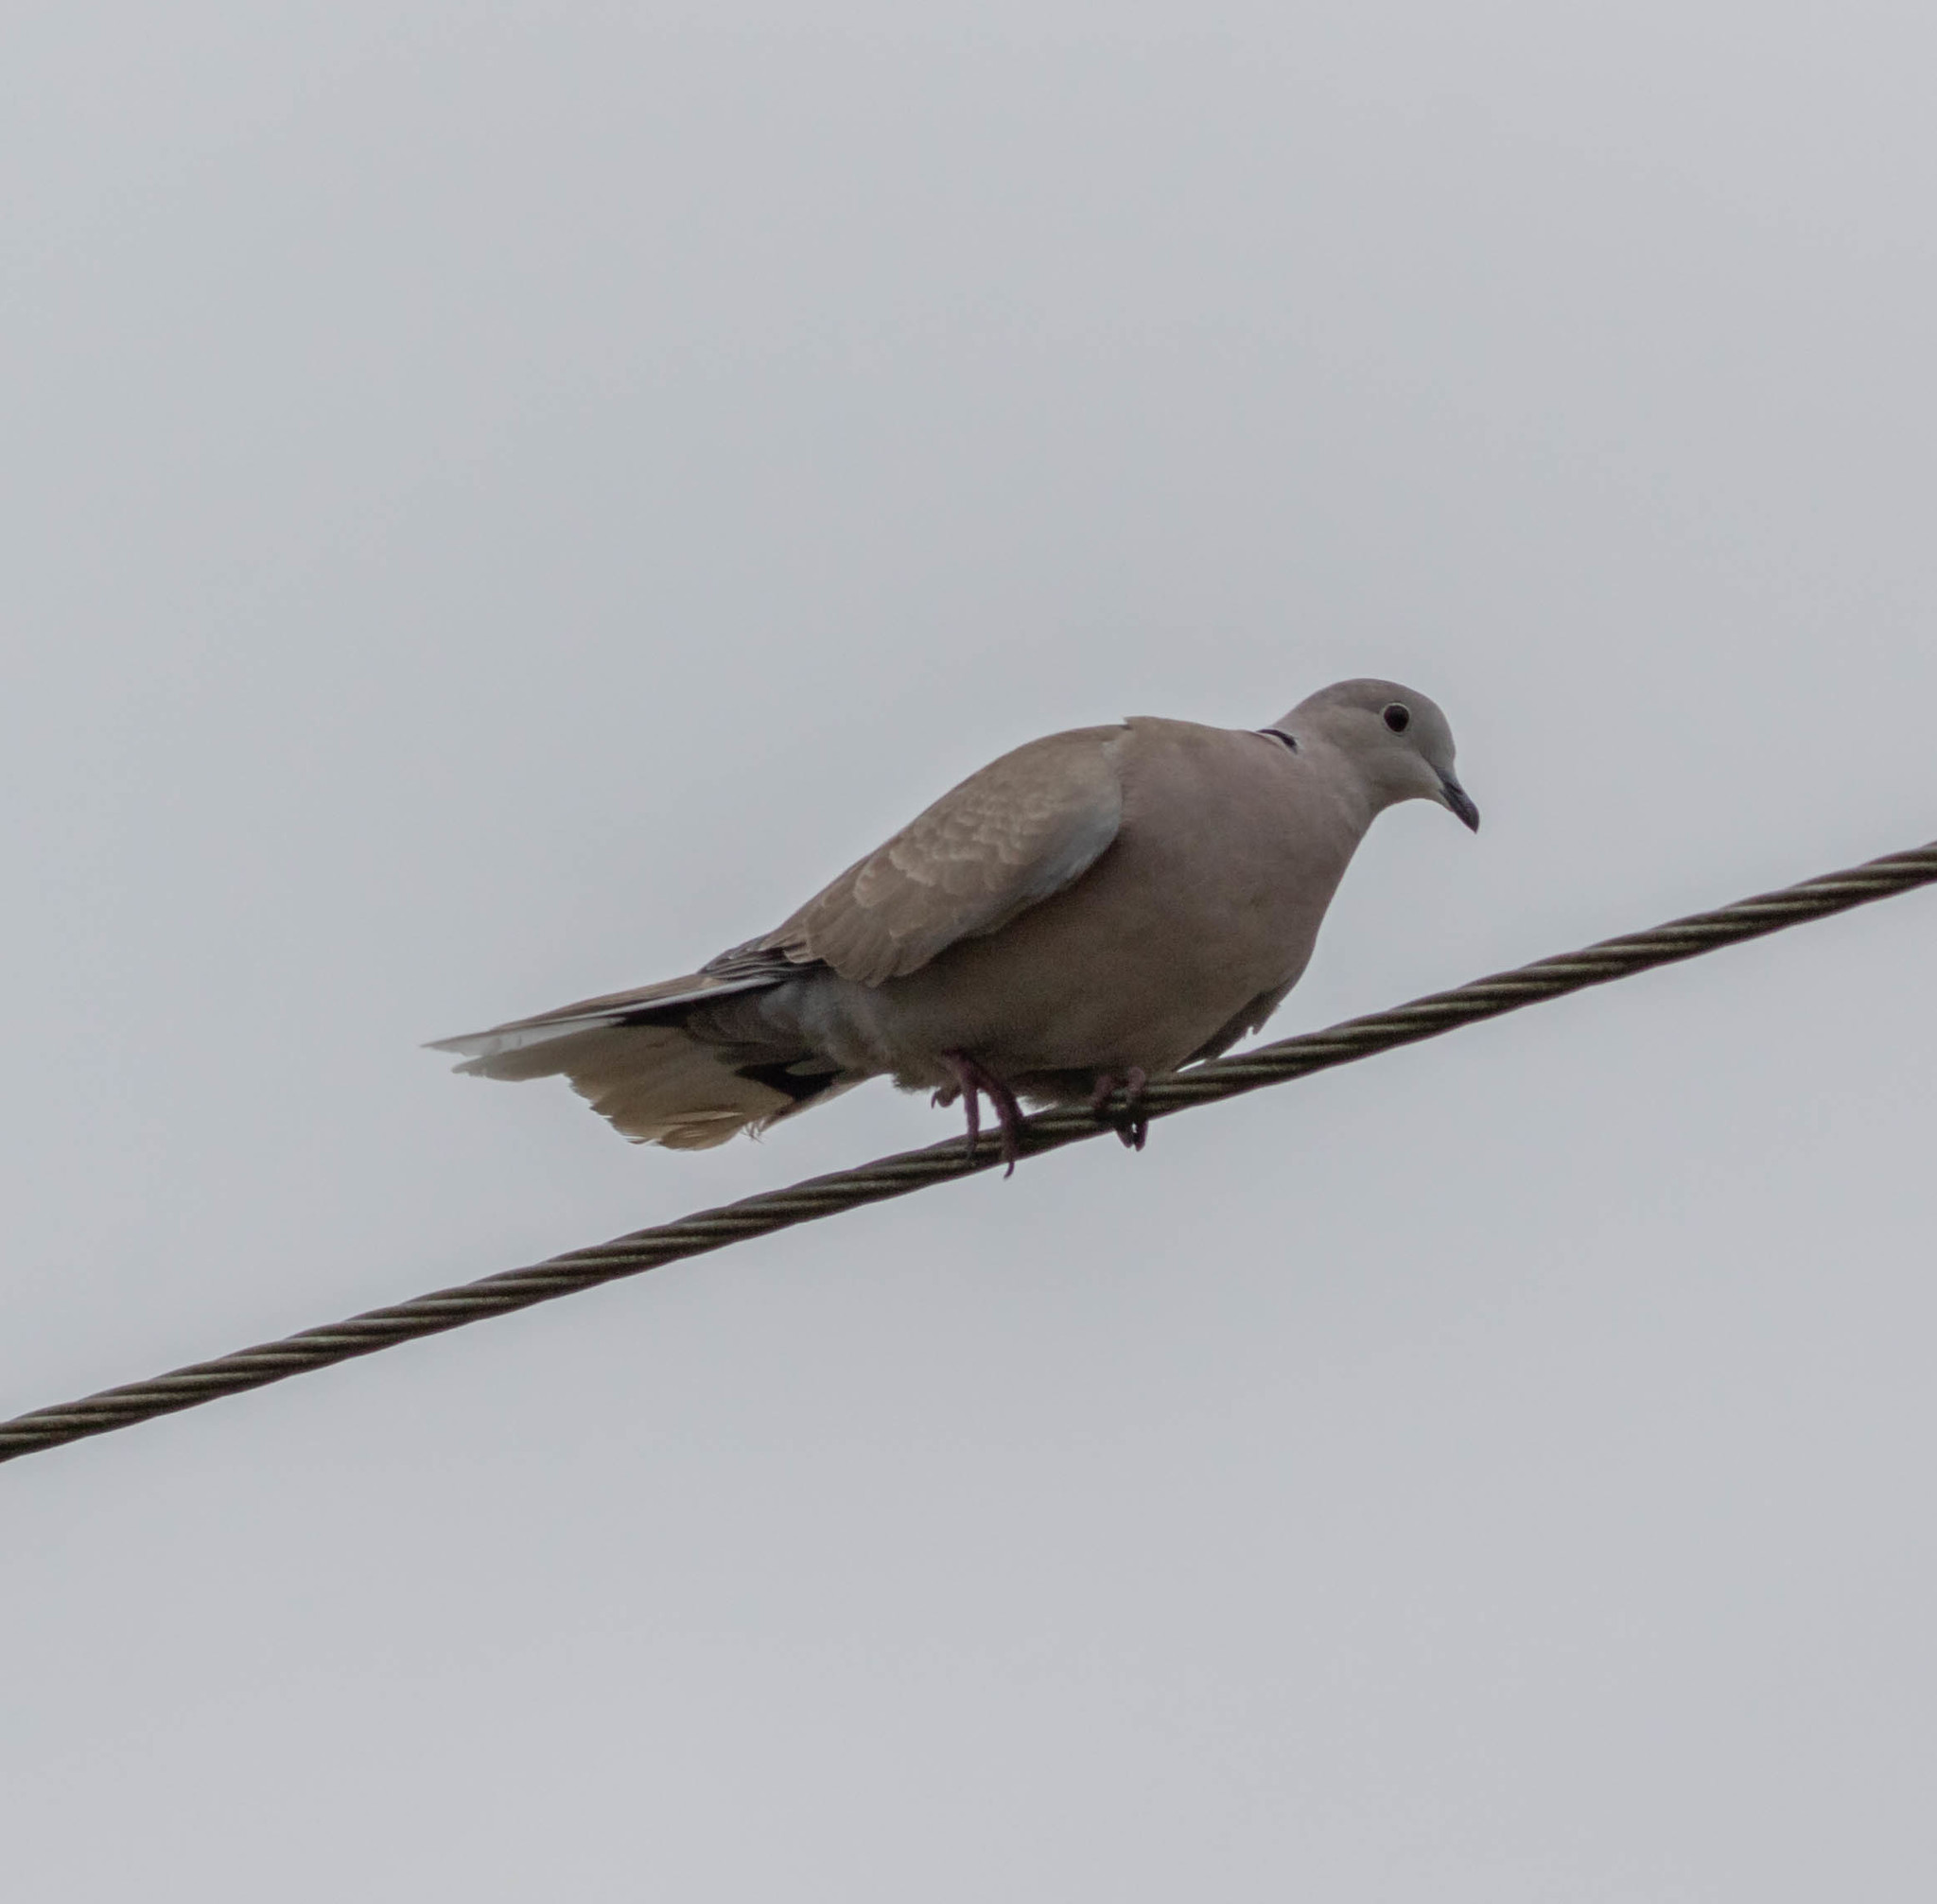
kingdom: Animalia
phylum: Chordata
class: Aves
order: Columbiformes
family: Columbidae
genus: Streptopelia
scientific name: Streptopelia decaocto
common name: Eurasian collared dove
